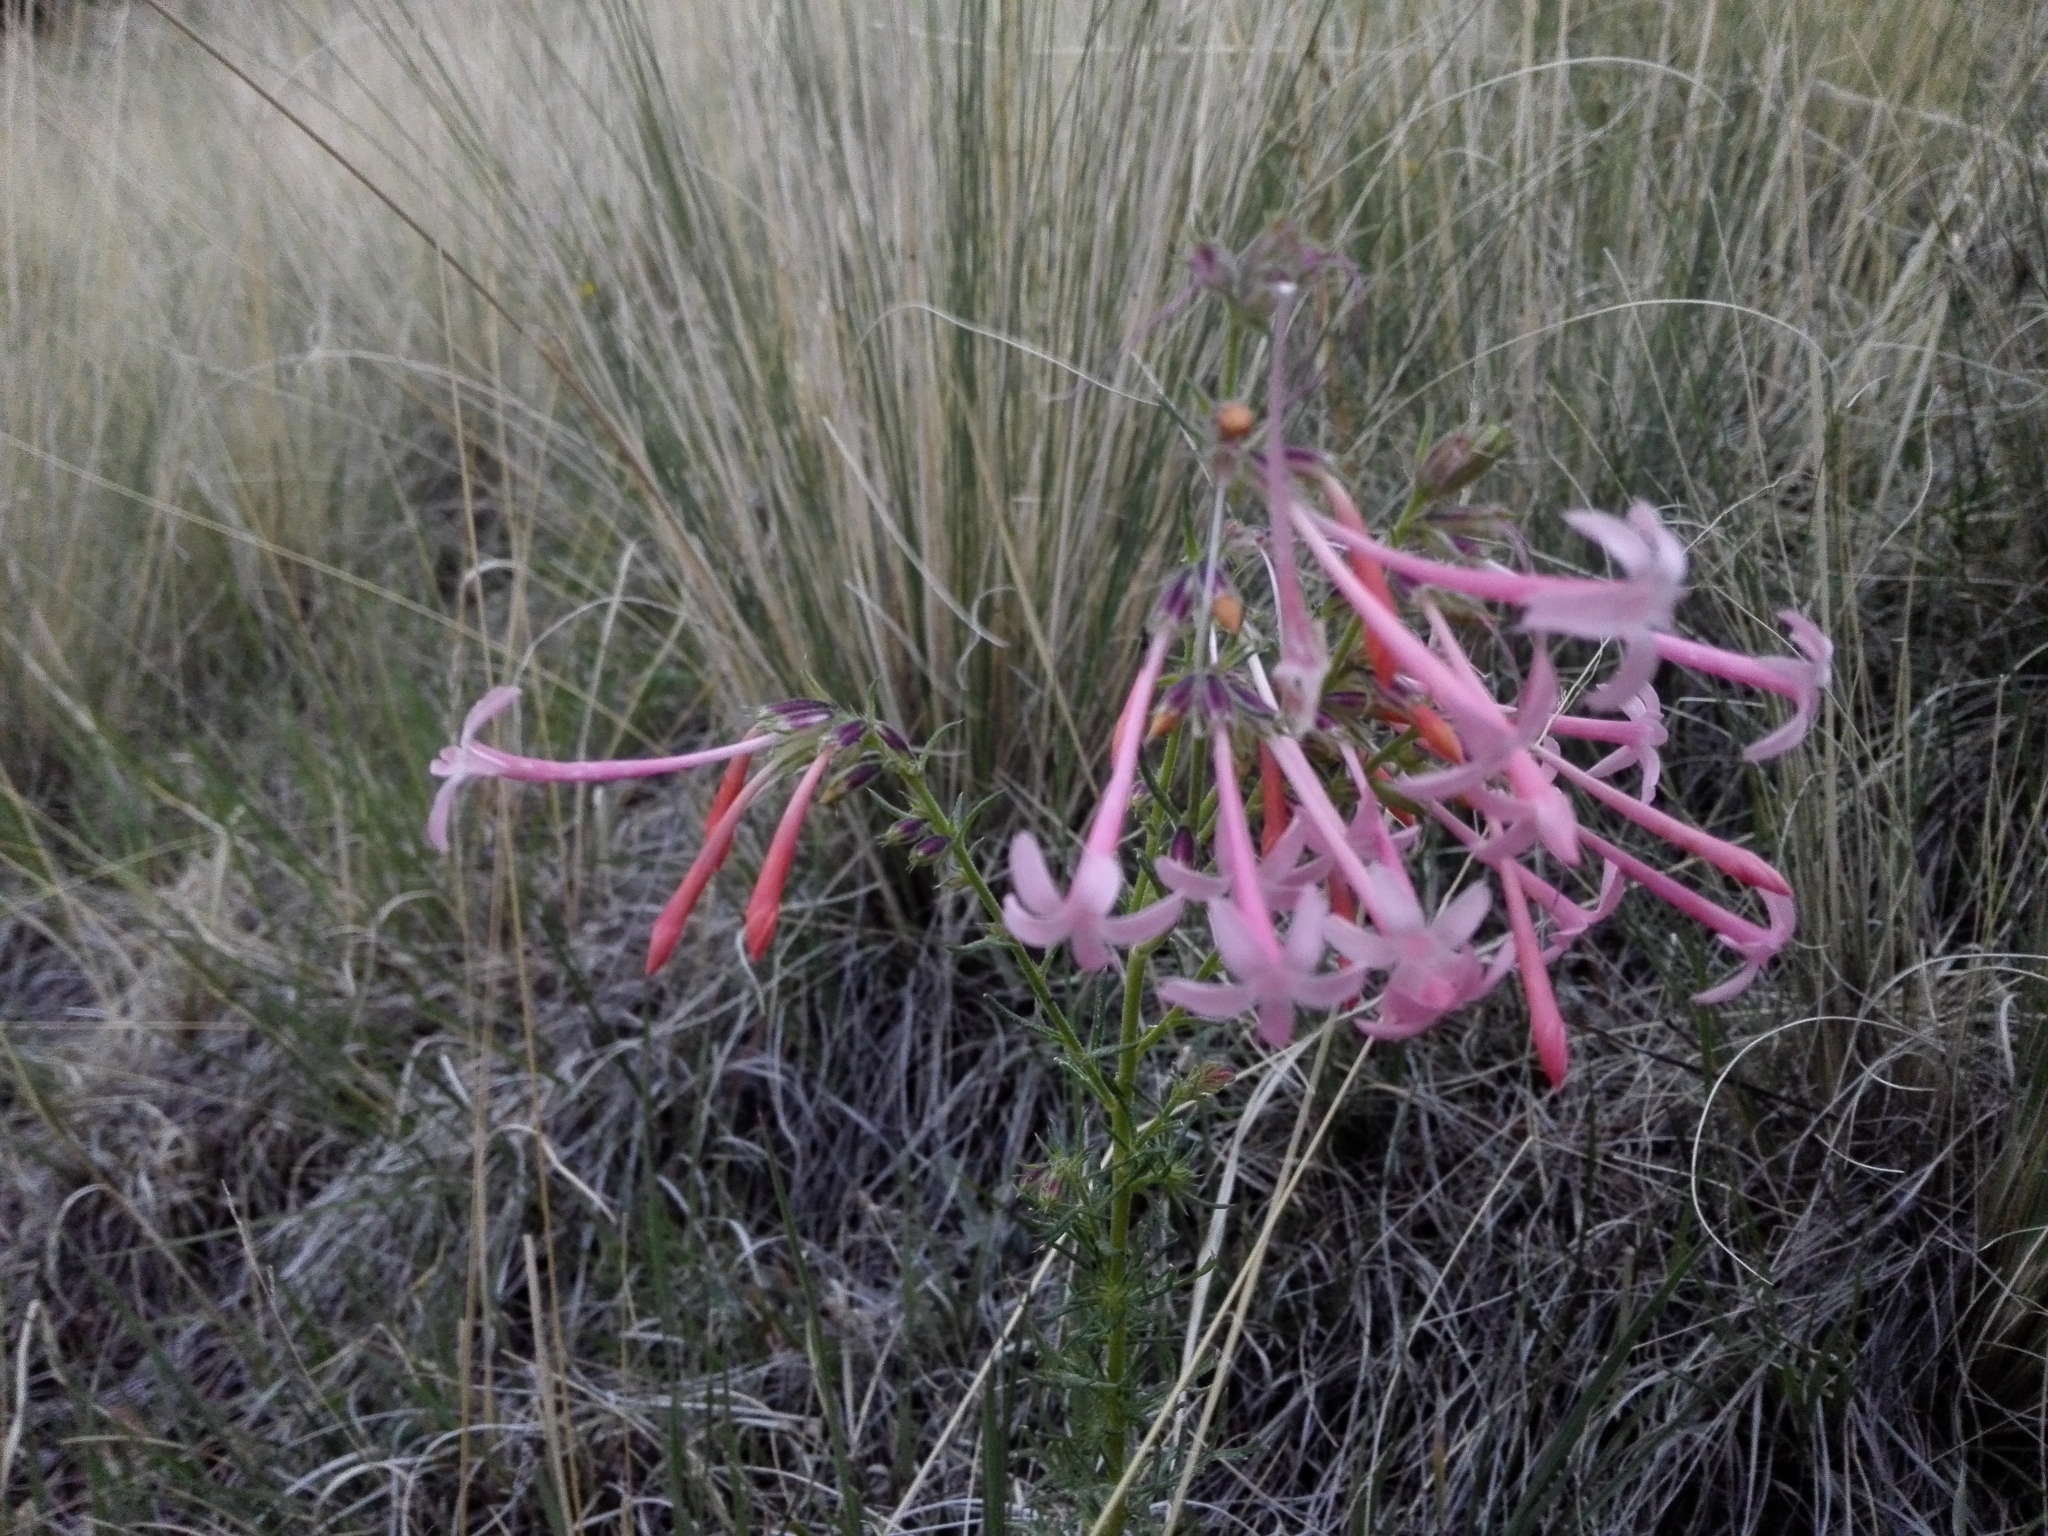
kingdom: Plantae
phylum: Tracheophyta
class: Magnoliopsida
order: Ericales
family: Polemoniaceae
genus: Ipomopsis
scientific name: Ipomopsis tenuituba
